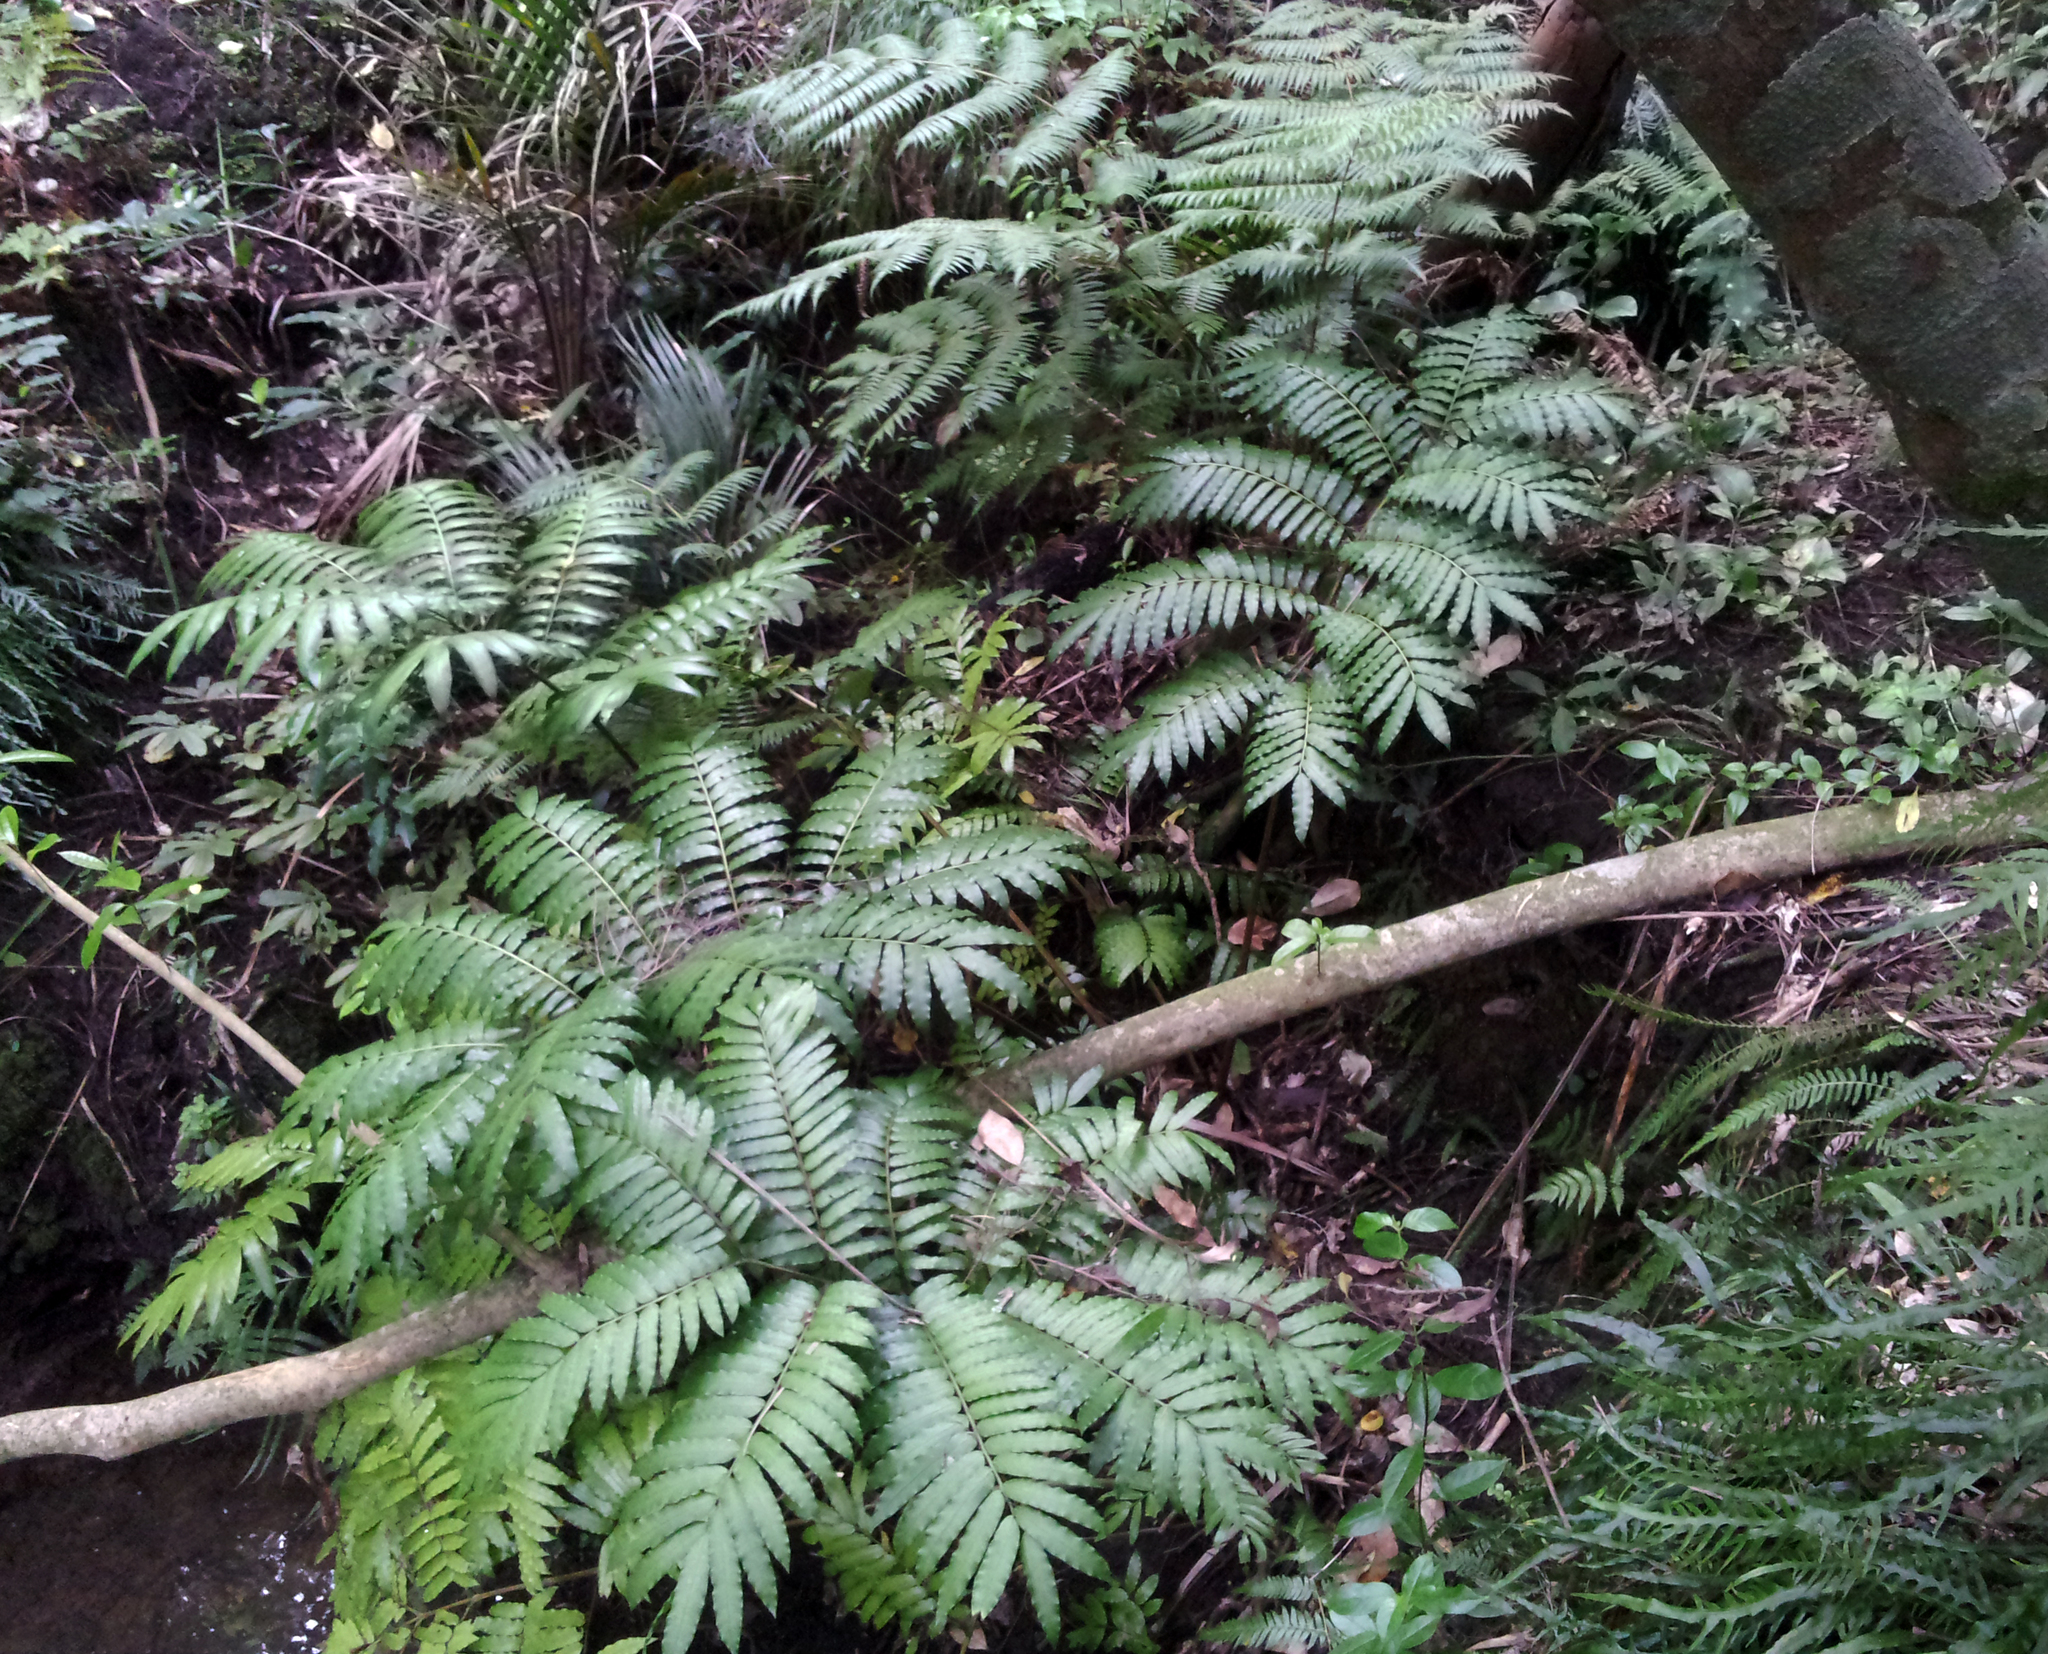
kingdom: Plantae
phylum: Tracheophyta
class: Polypodiopsida
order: Marattiales
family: Marattiaceae
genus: Ptisana
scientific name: Ptisana salicina
